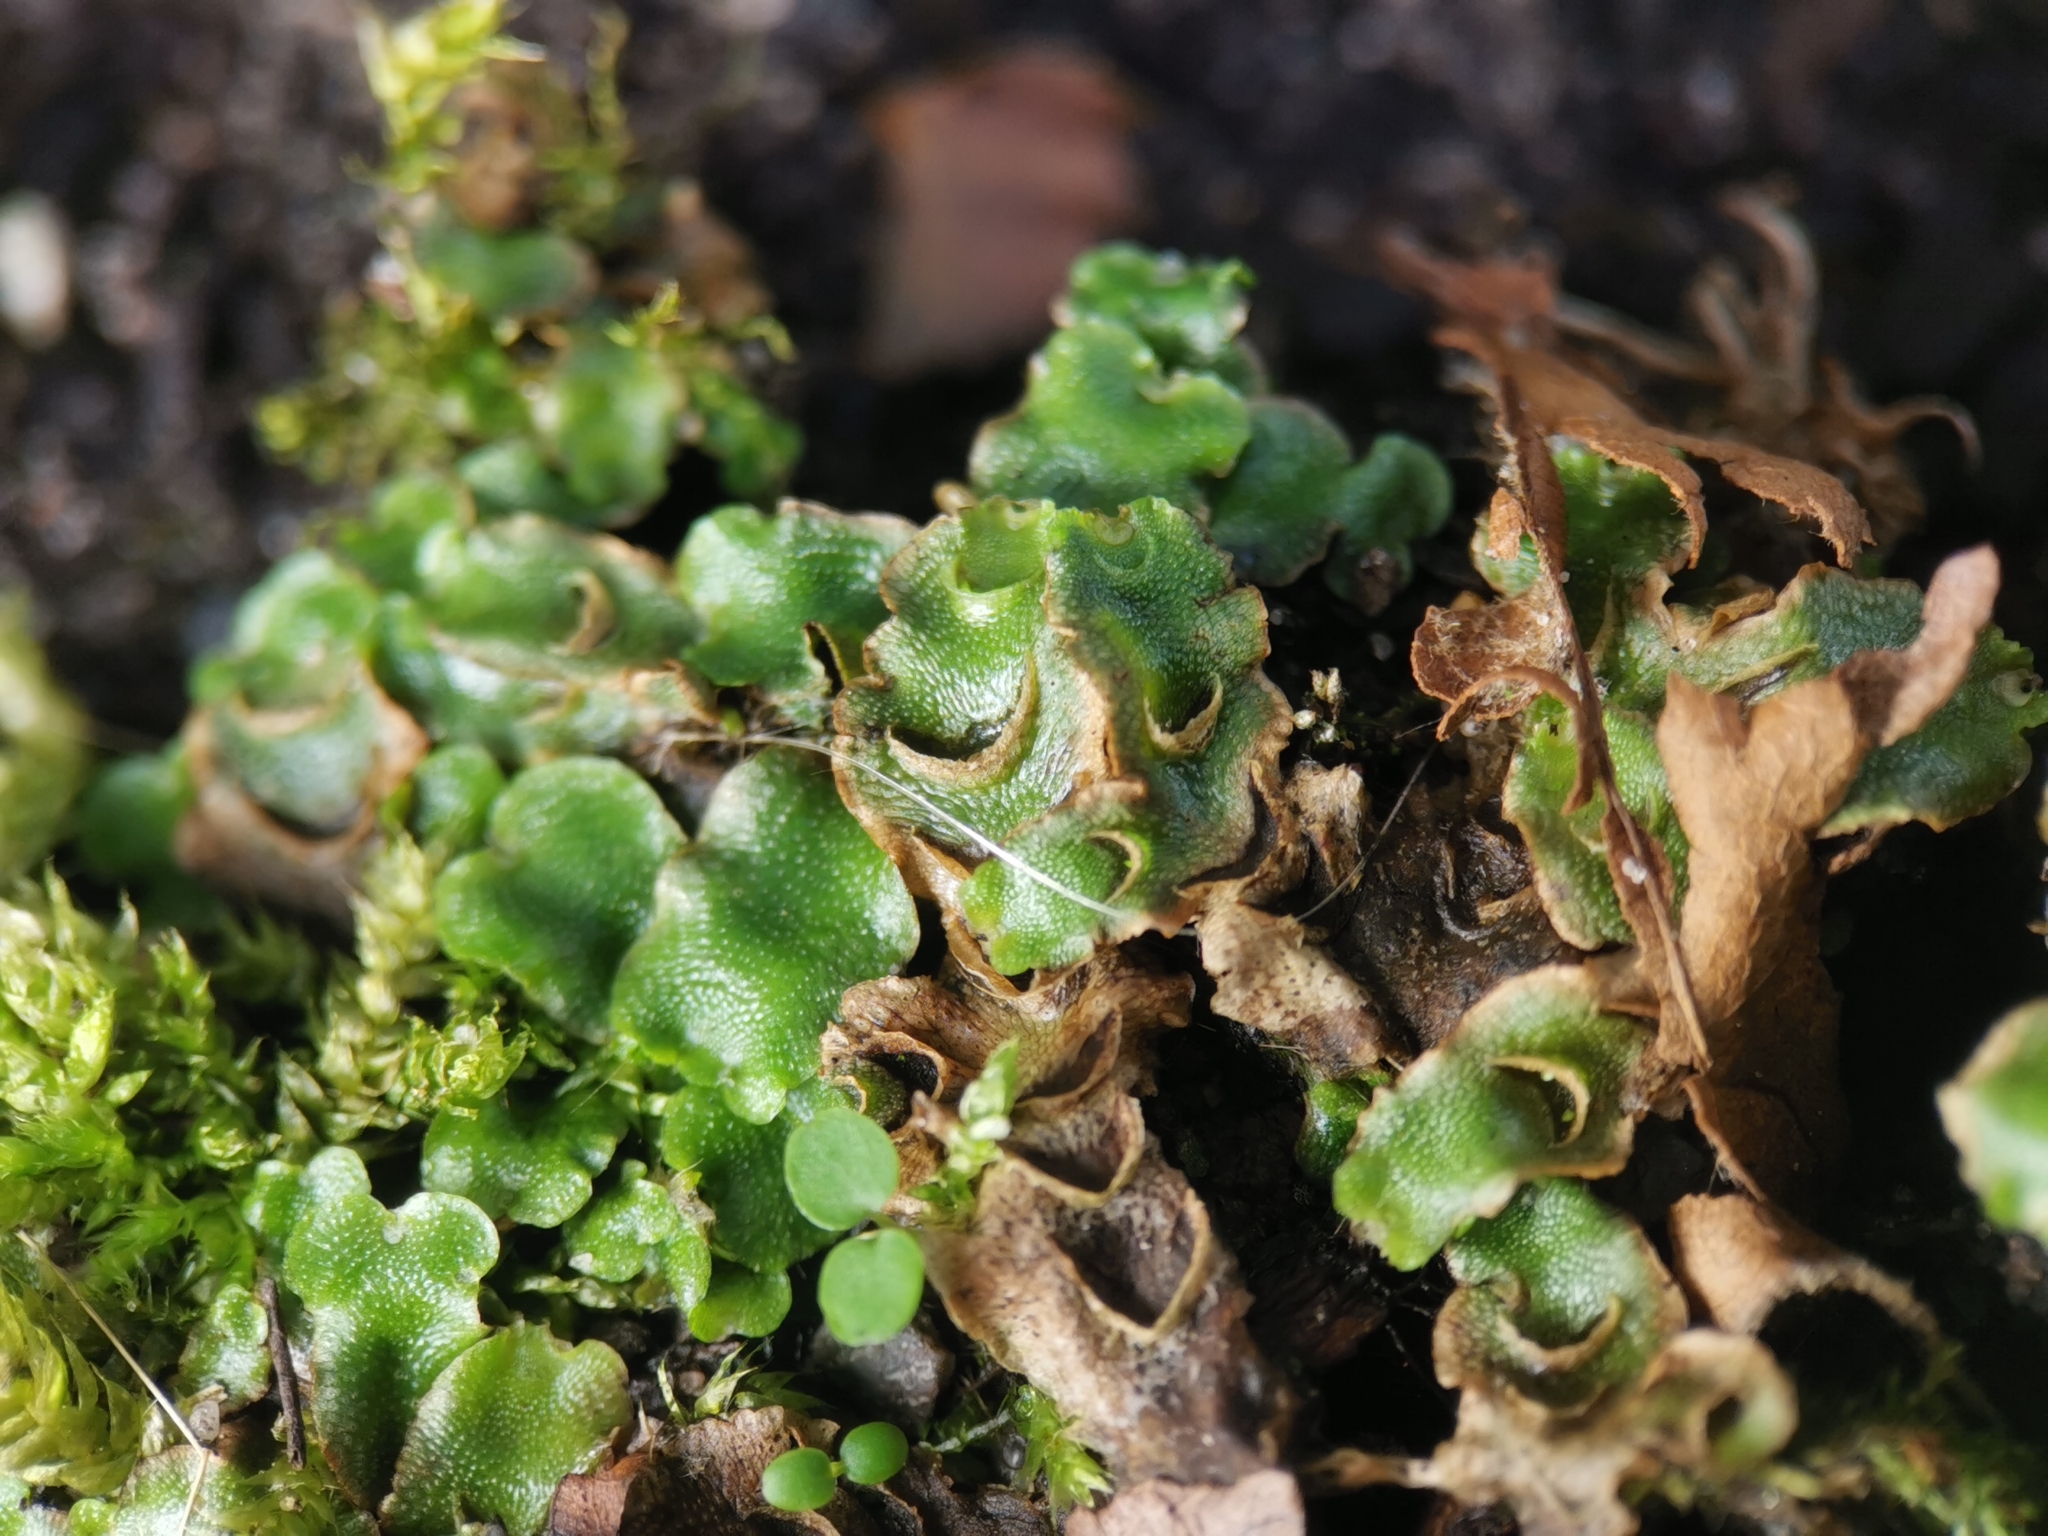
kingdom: Plantae
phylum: Marchantiophyta
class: Marchantiopsida
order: Lunulariales
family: Lunulariaceae
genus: Lunularia
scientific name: Lunularia cruciata
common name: Crescent-cup liverwort
